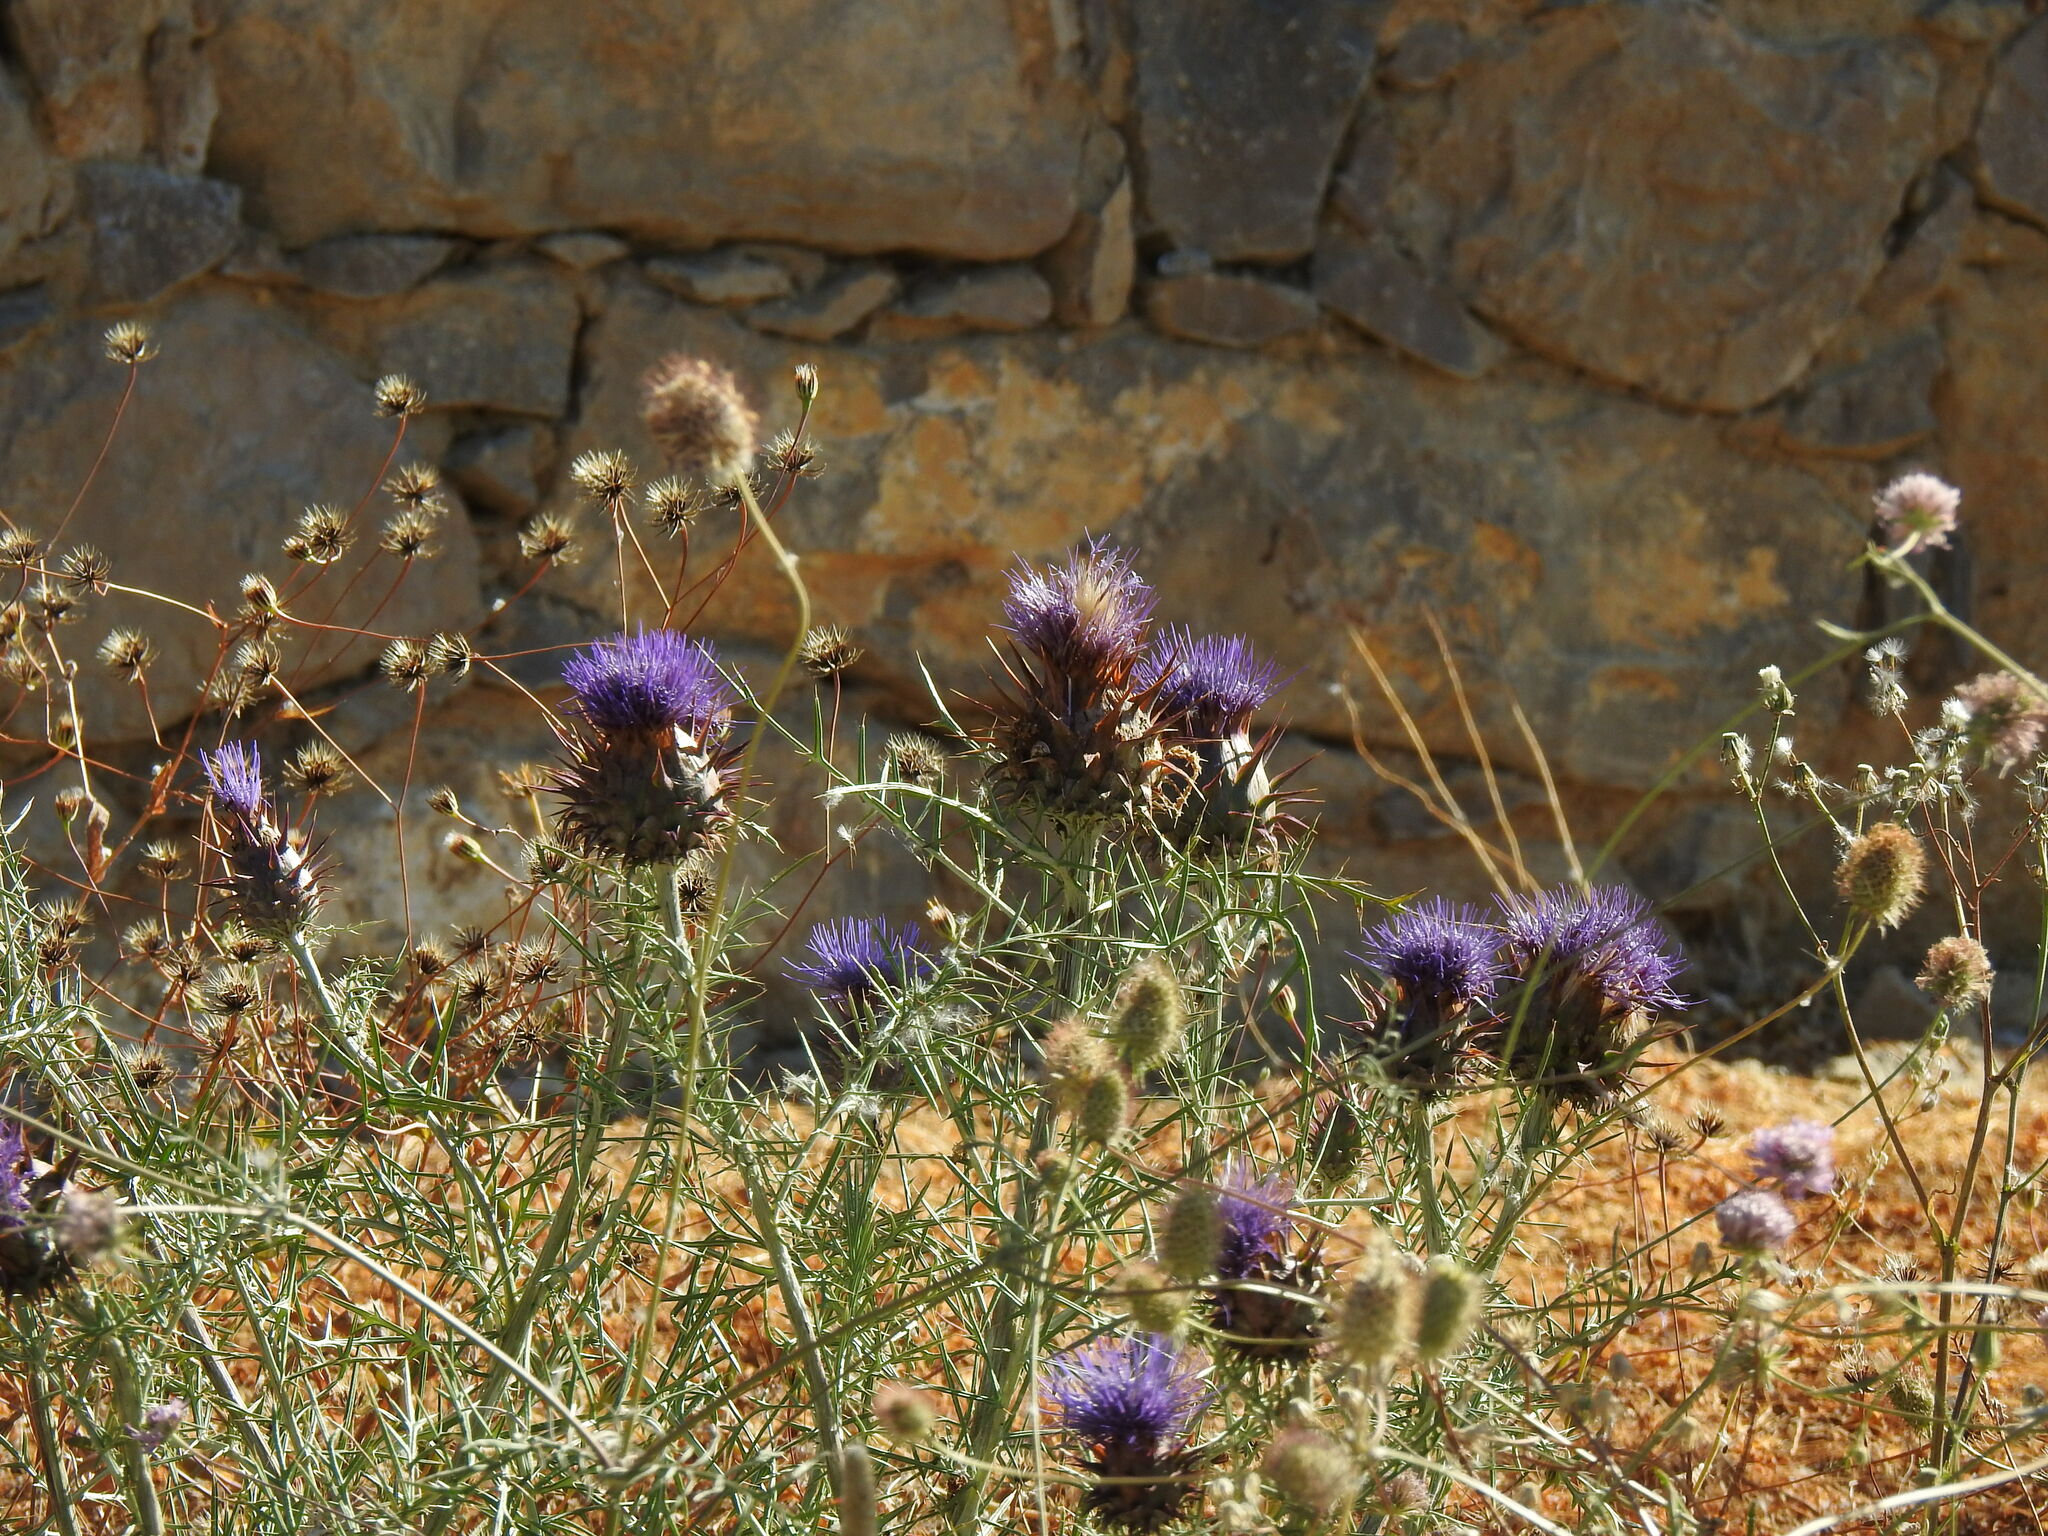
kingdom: Plantae
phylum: Tracheophyta
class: Magnoliopsida
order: Asterales
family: Asteraceae
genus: Cynara
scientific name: Cynara humilis
